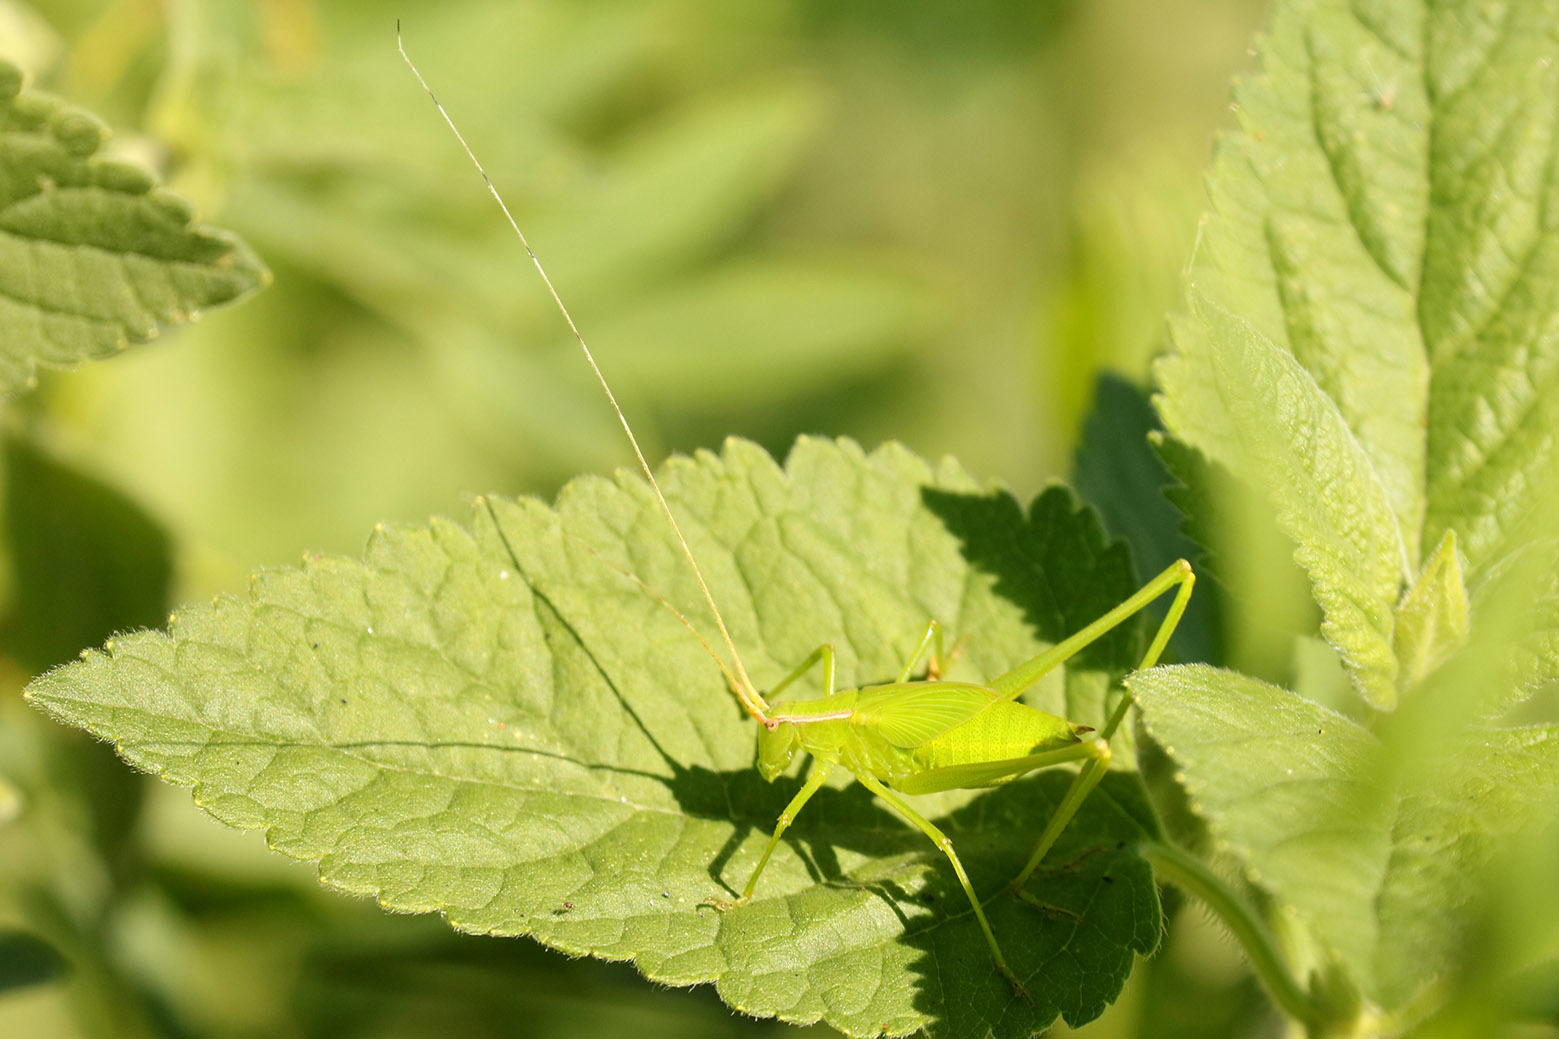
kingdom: Animalia
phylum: Arthropoda
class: Insecta
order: Orthoptera
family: Tettigoniidae
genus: Hyperophora
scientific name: Hyperophora major
